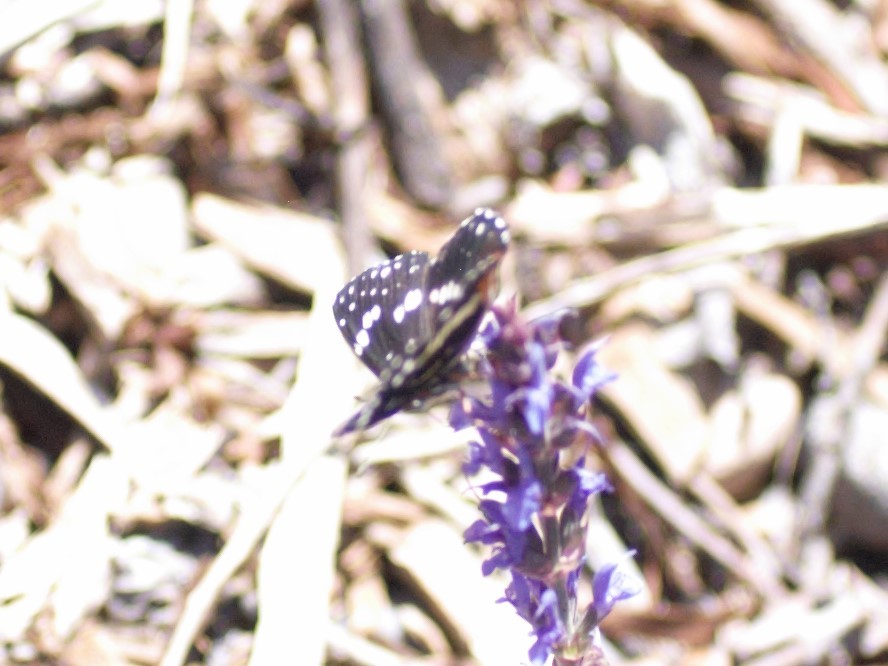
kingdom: Animalia
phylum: Arthropoda
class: Insecta
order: Lepidoptera
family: Nymphalidae
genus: Chlosyne
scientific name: Chlosyne lacinia
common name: Bordered patch
